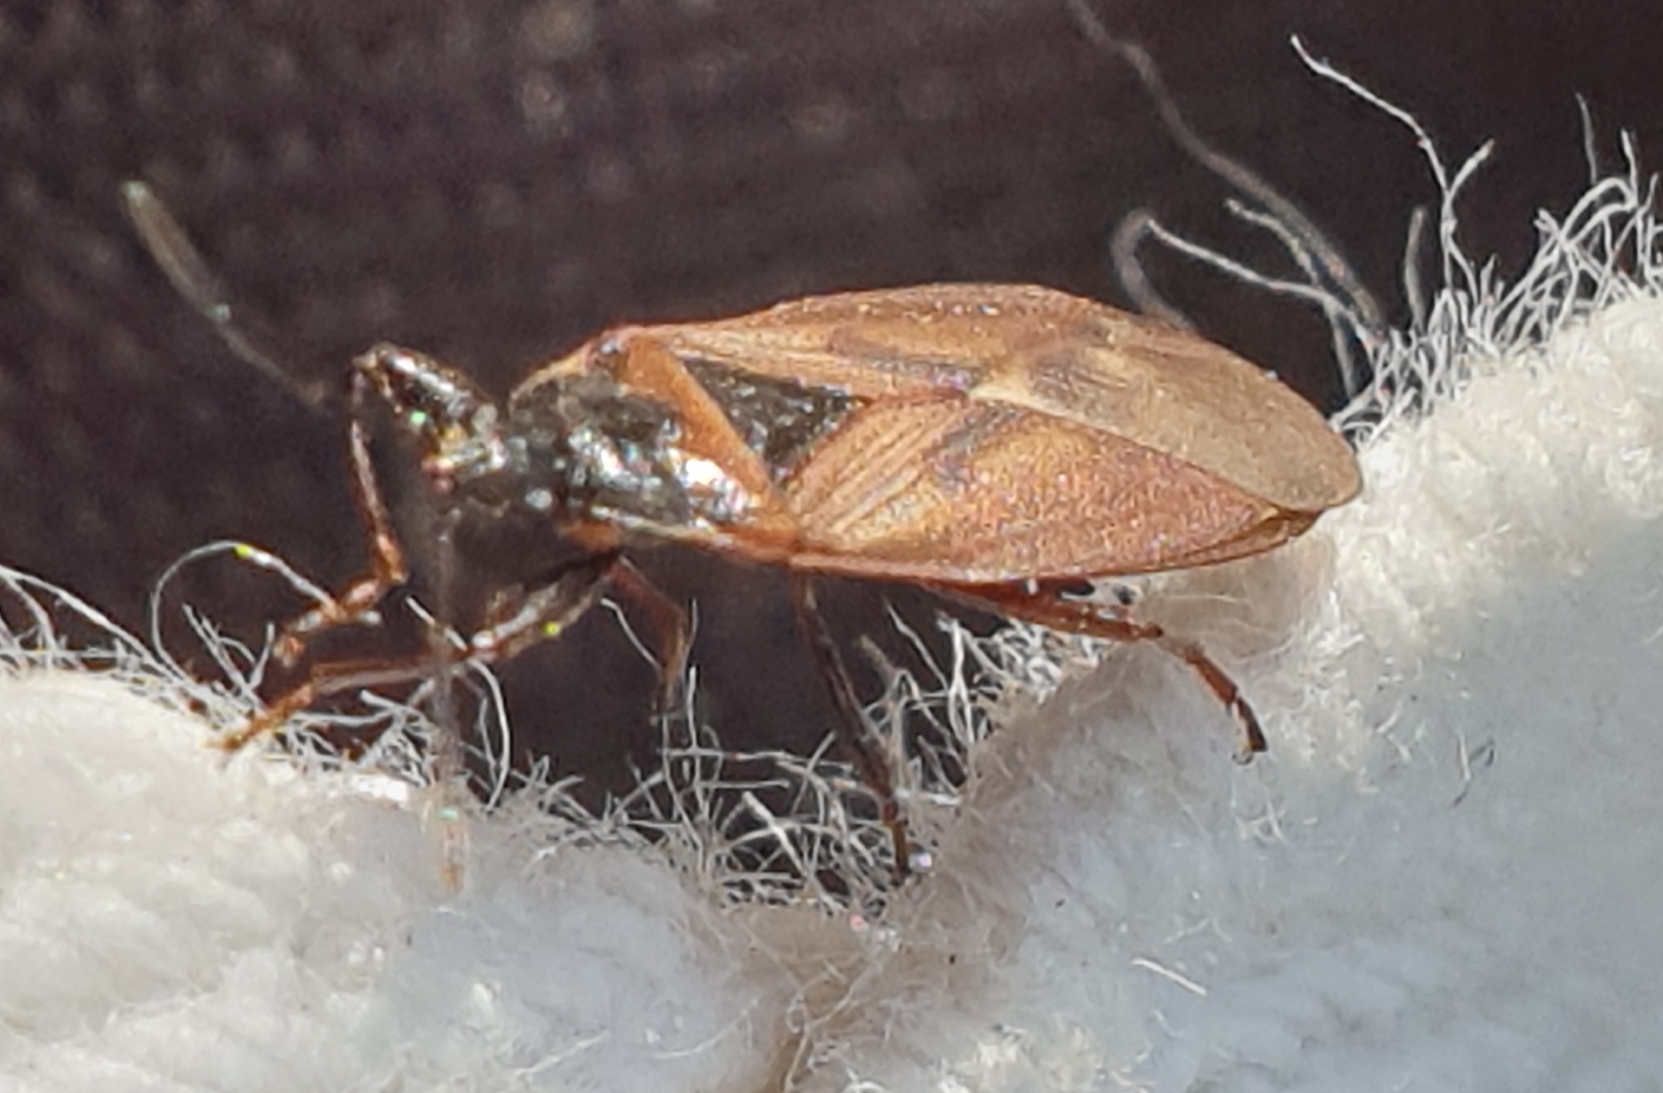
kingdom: Animalia
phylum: Arthropoda
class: Insecta
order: Hemiptera
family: Rhyparochromidae
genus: Gastrodes
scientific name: Gastrodes abietum
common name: Spruce cone bug
